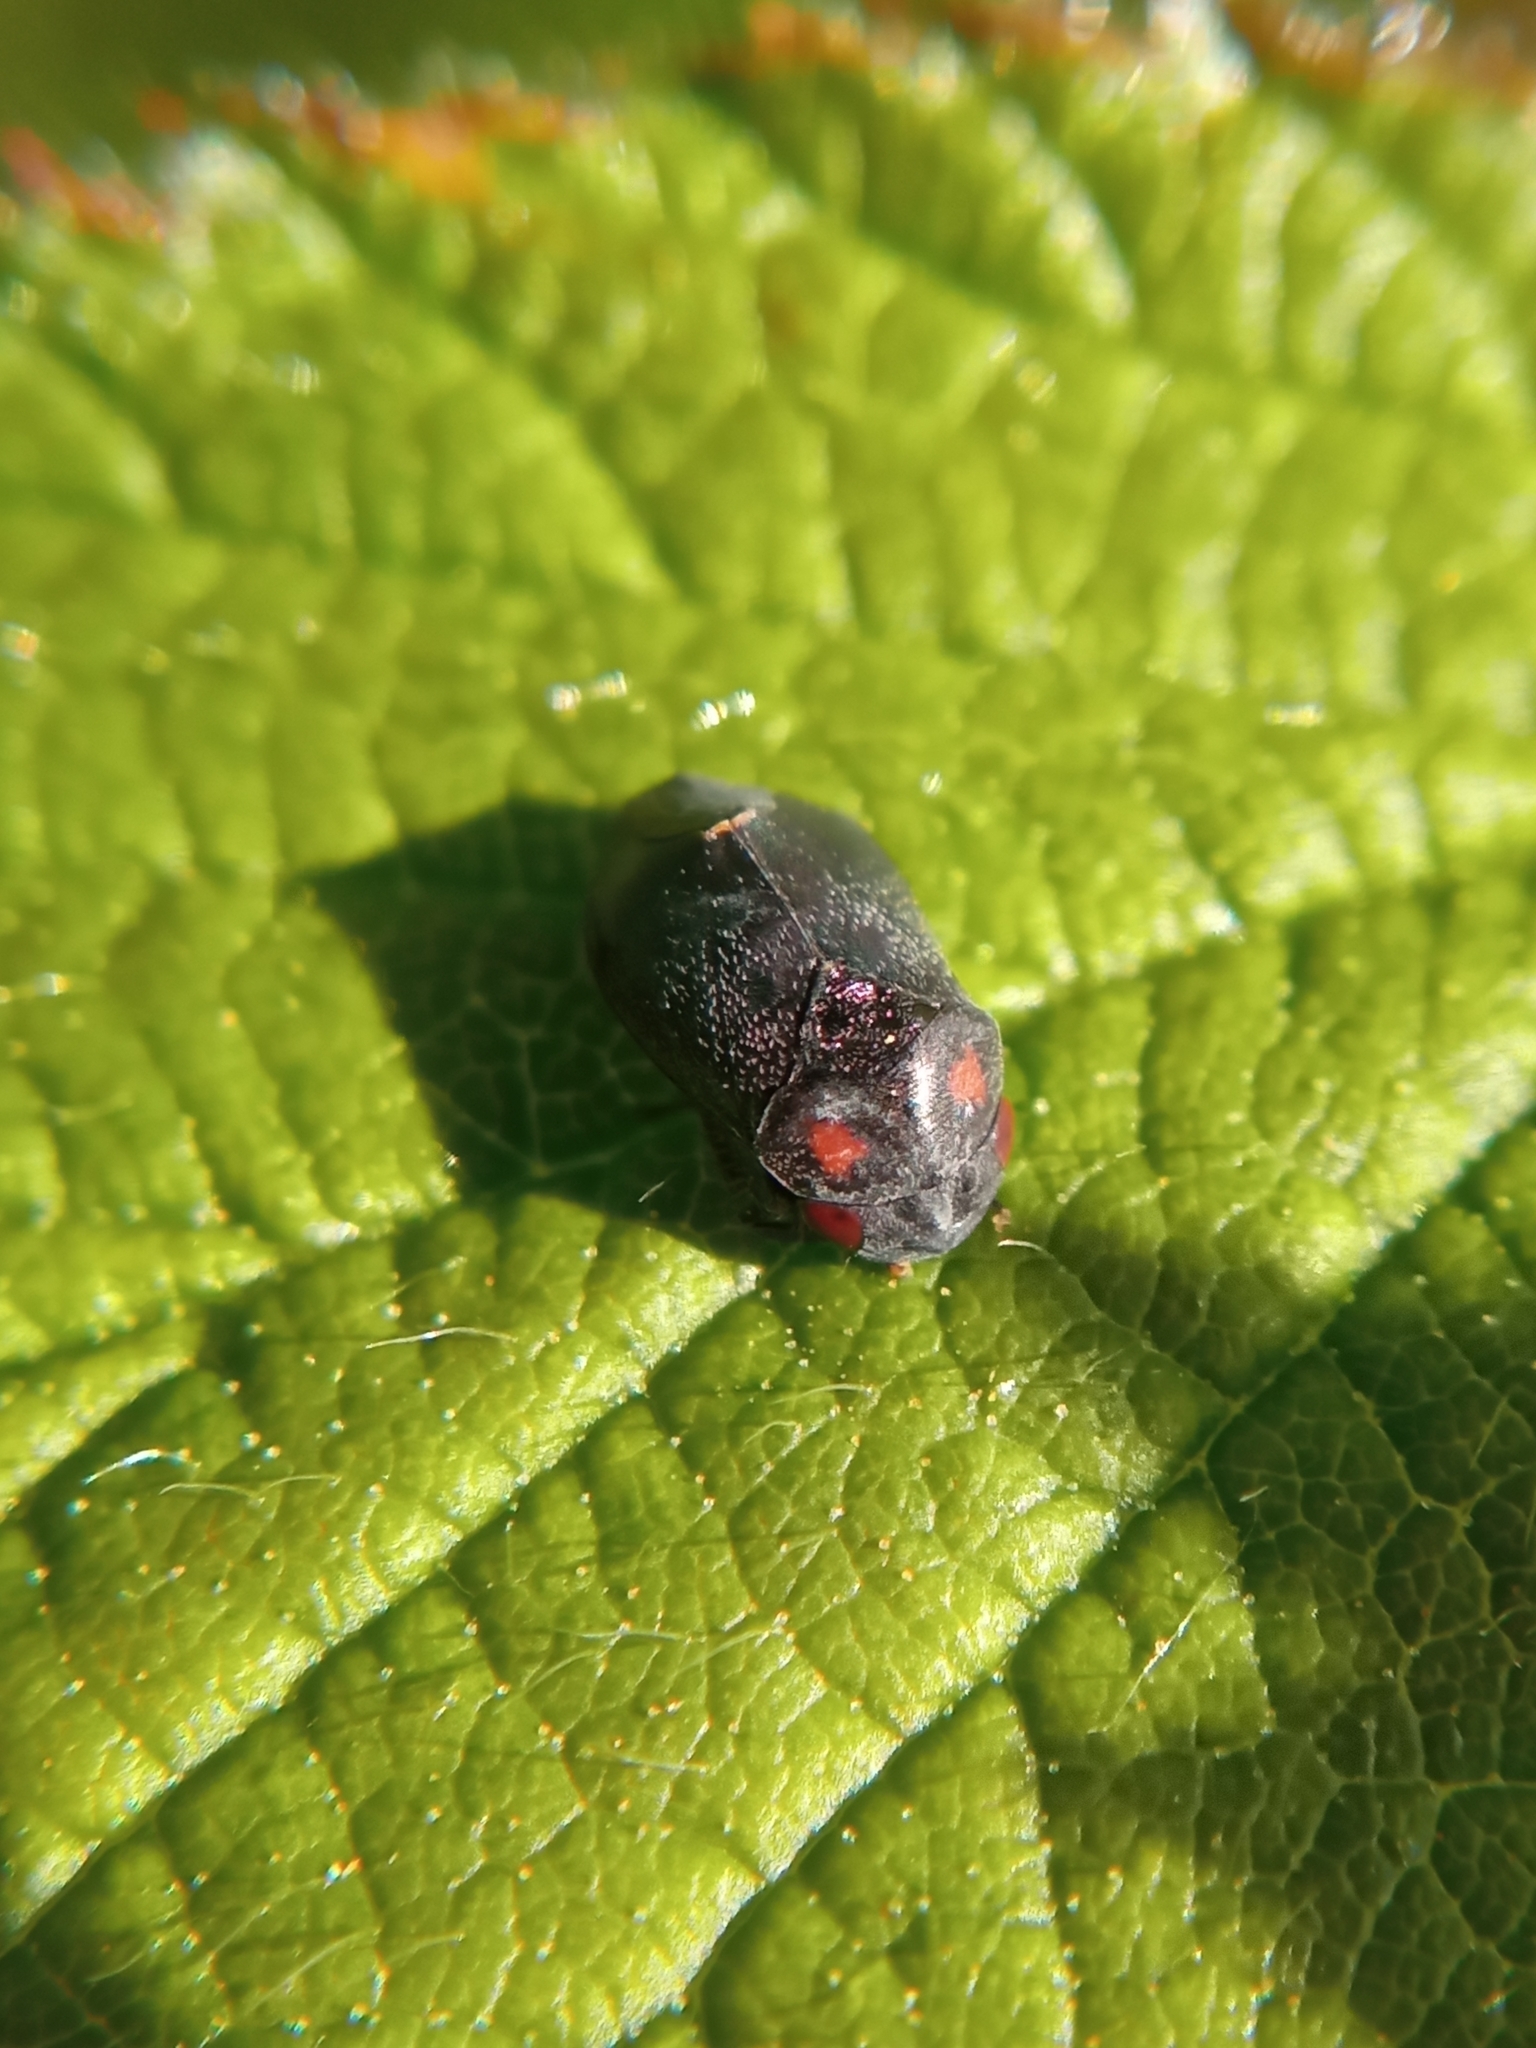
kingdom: Animalia
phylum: Arthropoda
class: Insecta
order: Hemiptera
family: Cicadellidae
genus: Penthimia
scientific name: Penthimia nigra
